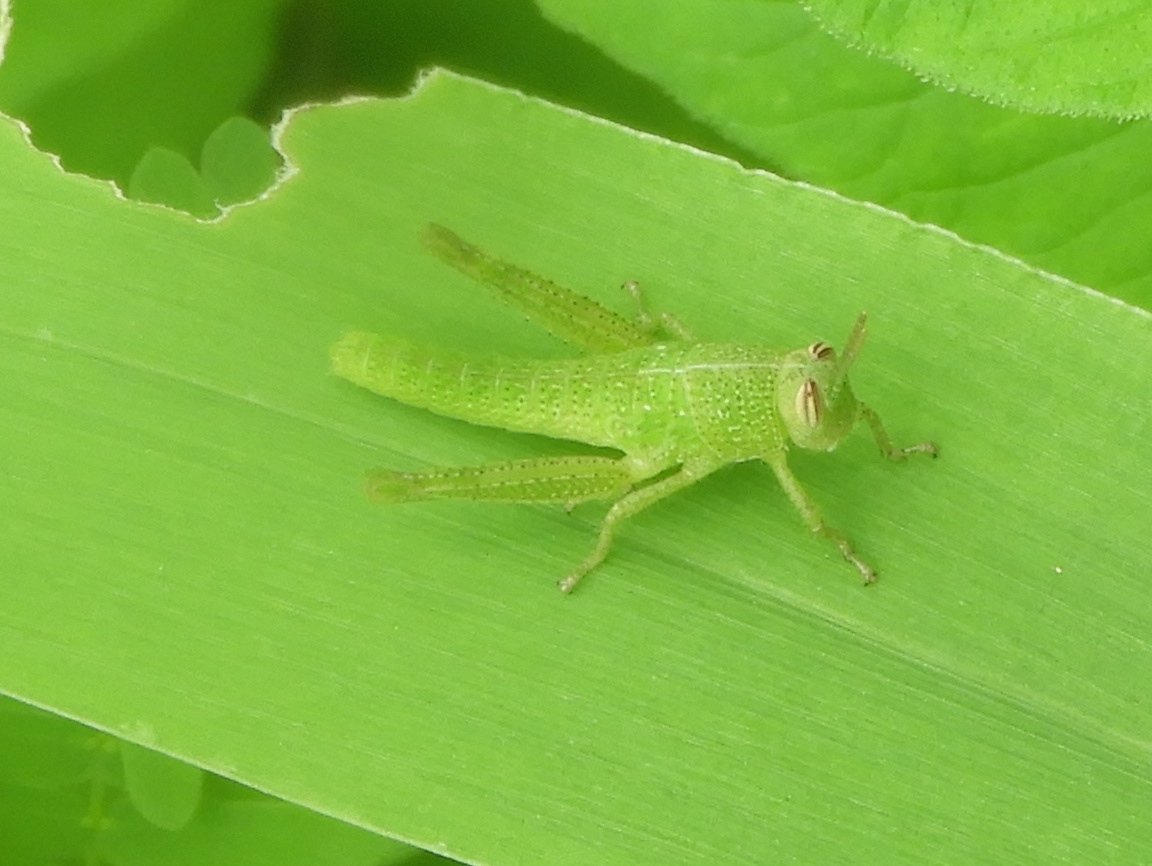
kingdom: Animalia
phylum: Arthropoda
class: Insecta
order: Orthoptera
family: Acrididae
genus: Schistocerca
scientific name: Schistocerca camerata
